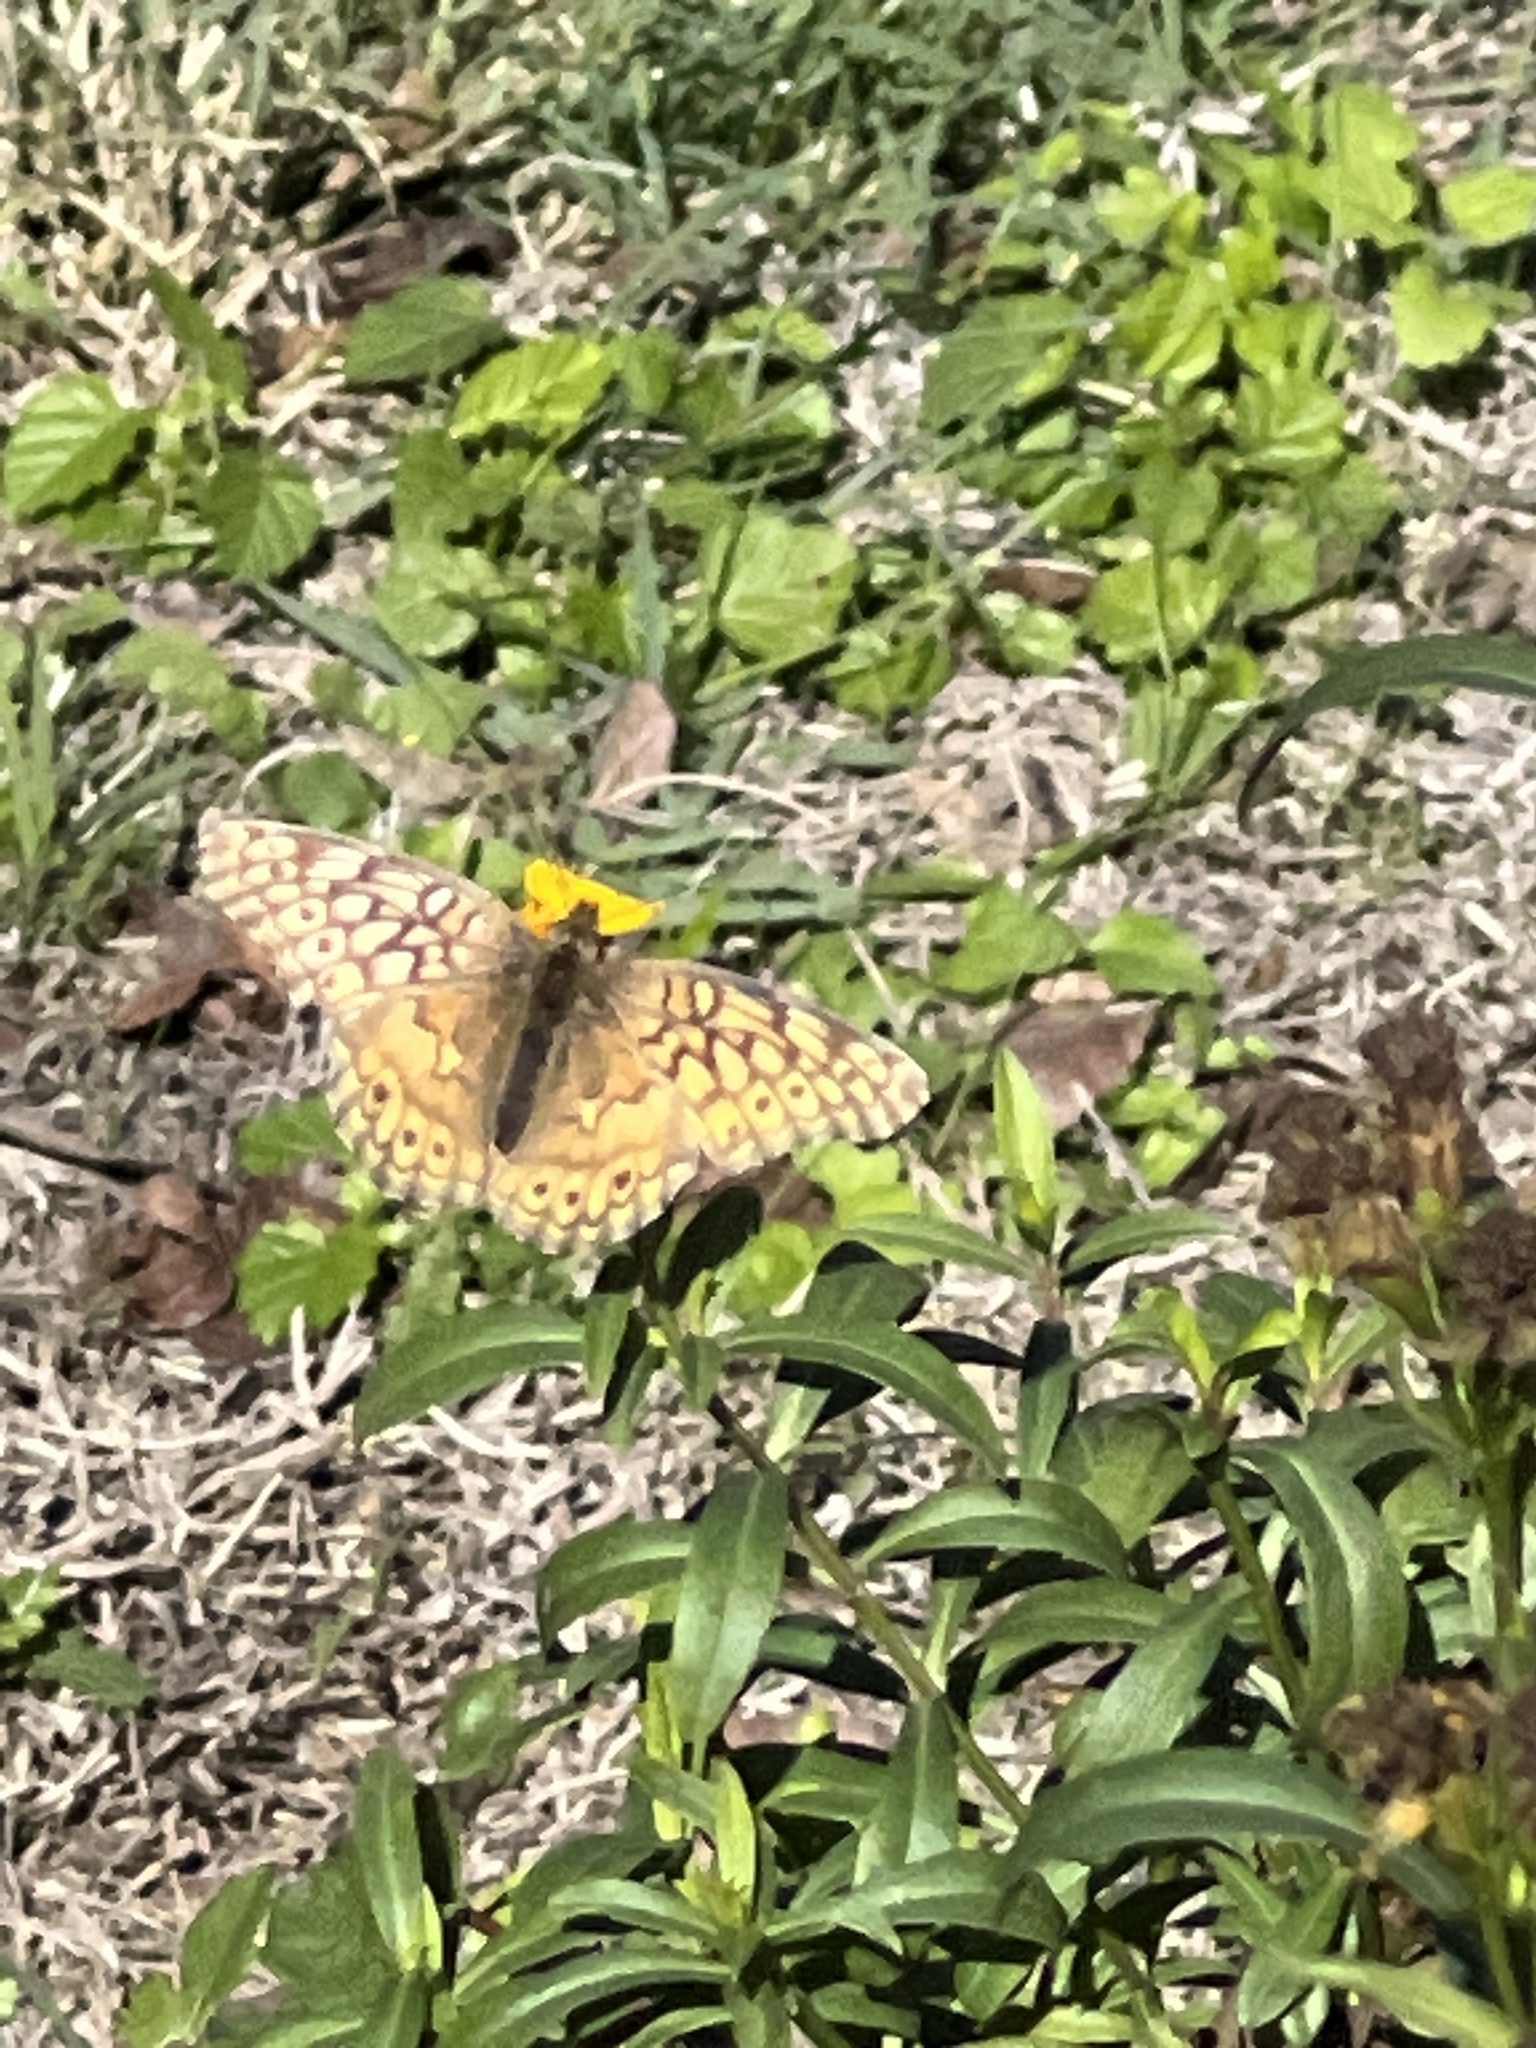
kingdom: Animalia
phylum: Arthropoda
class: Insecta
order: Lepidoptera
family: Nymphalidae
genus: Euptoieta
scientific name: Euptoieta claudia
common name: Variegated fritillary
